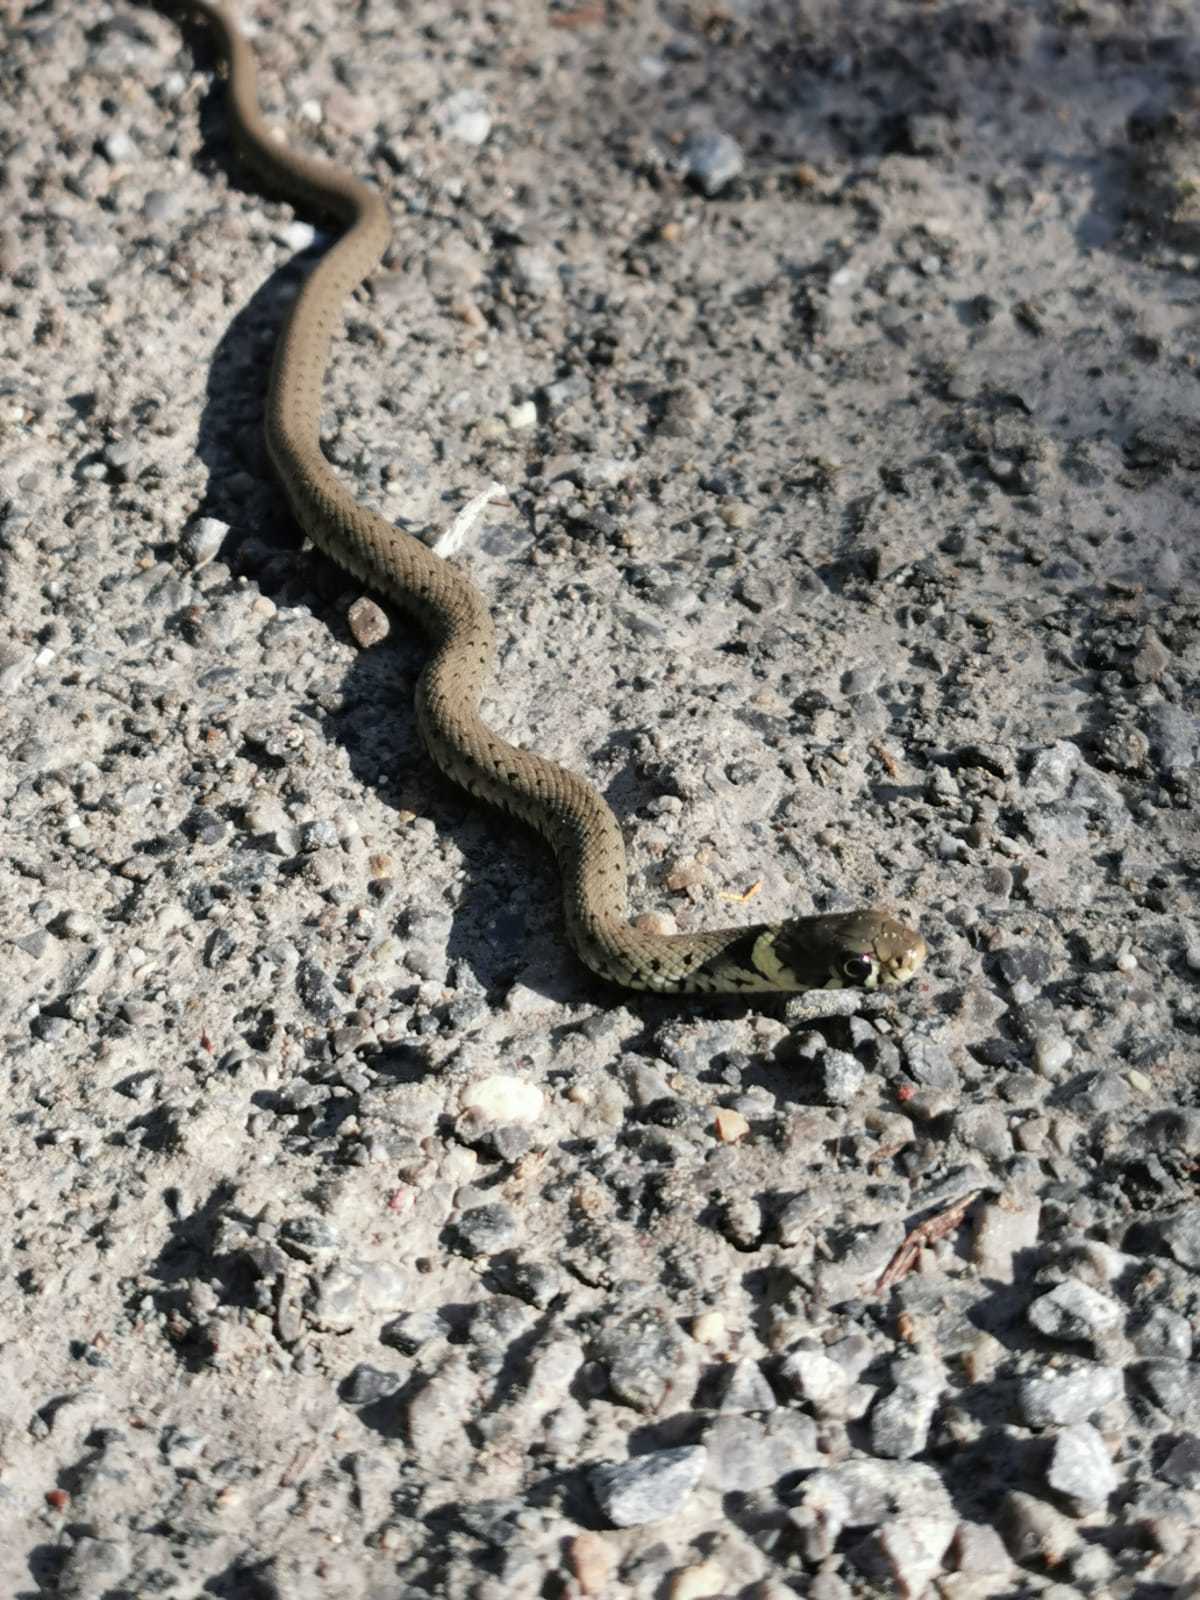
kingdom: Animalia
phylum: Chordata
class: Squamata
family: Colubridae
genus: Natrix
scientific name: Natrix helvetica
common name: Banded grass snake
